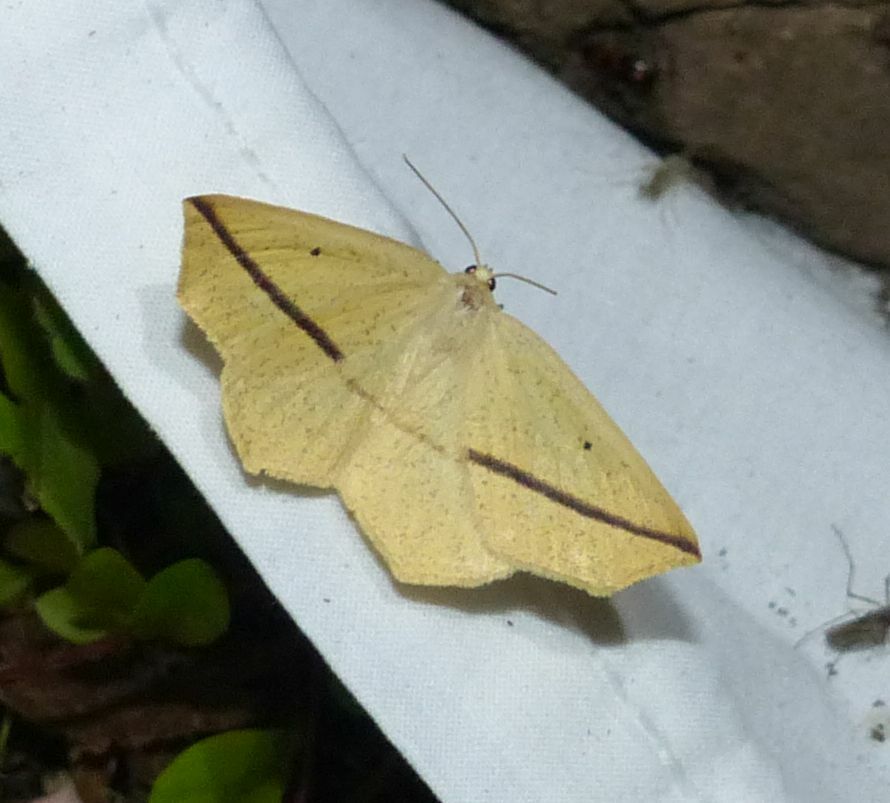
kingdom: Animalia
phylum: Arthropoda
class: Insecta
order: Lepidoptera
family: Geometridae
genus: Tetracis
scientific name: Tetracis crocallata
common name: Yellow slant-line
